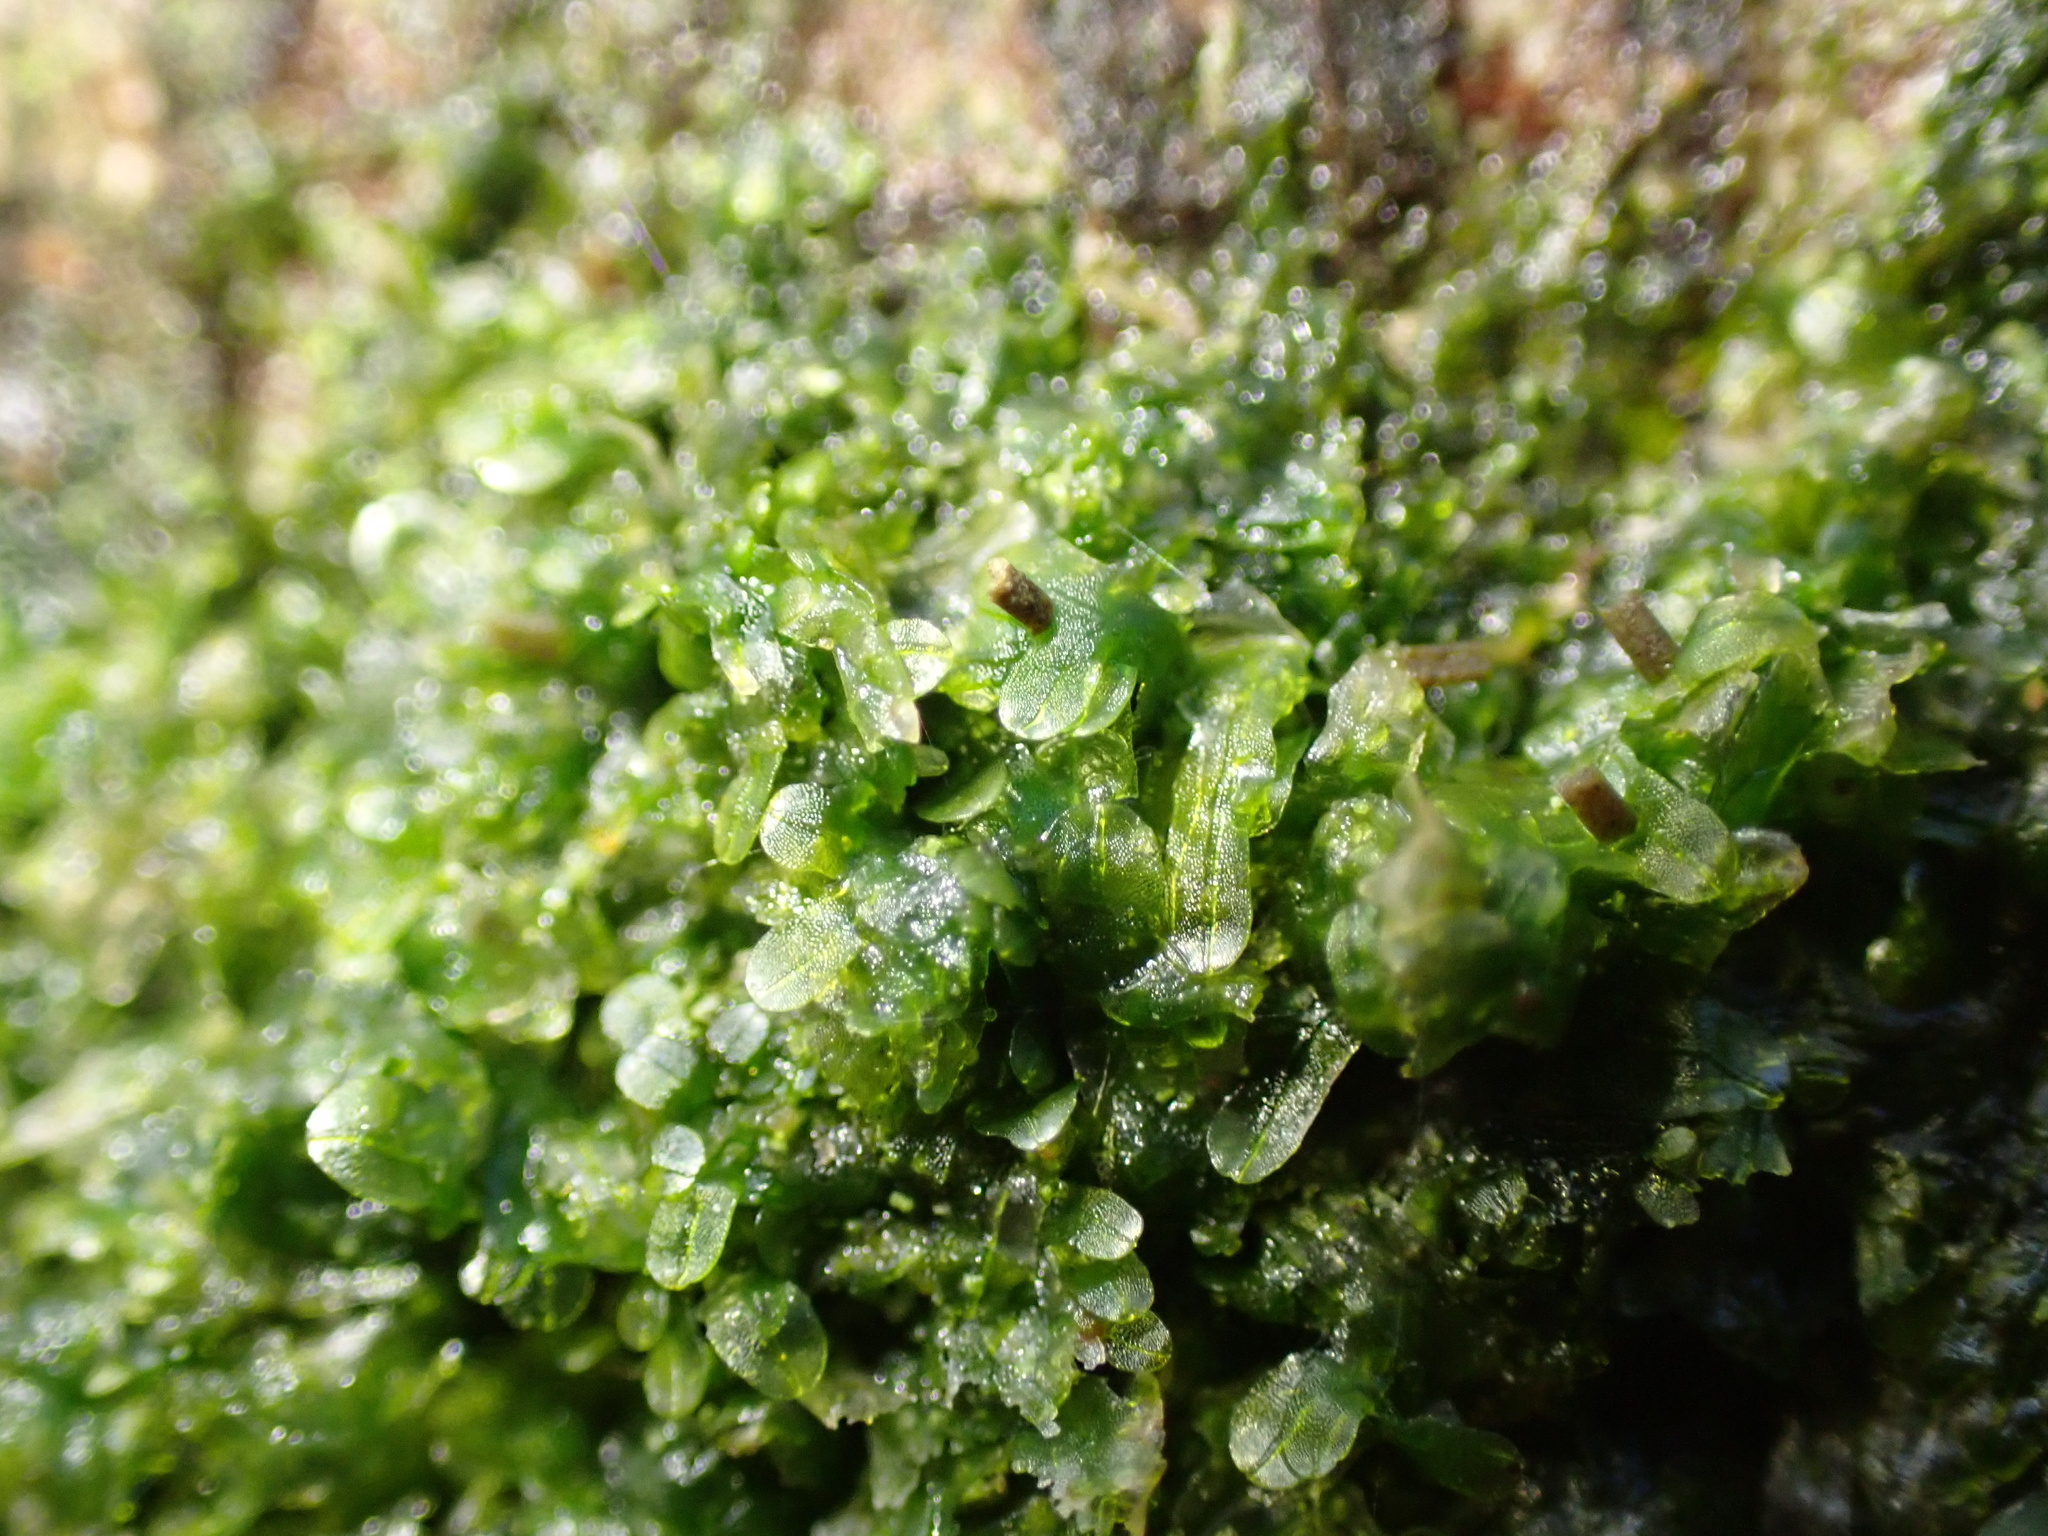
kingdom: Plantae
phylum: Marchantiophyta
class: Jungermanniopsida
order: Metzgeriales
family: Metzgeriaceae
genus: Metzgeria
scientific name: Metzgeria furcata
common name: Forked veilwort
